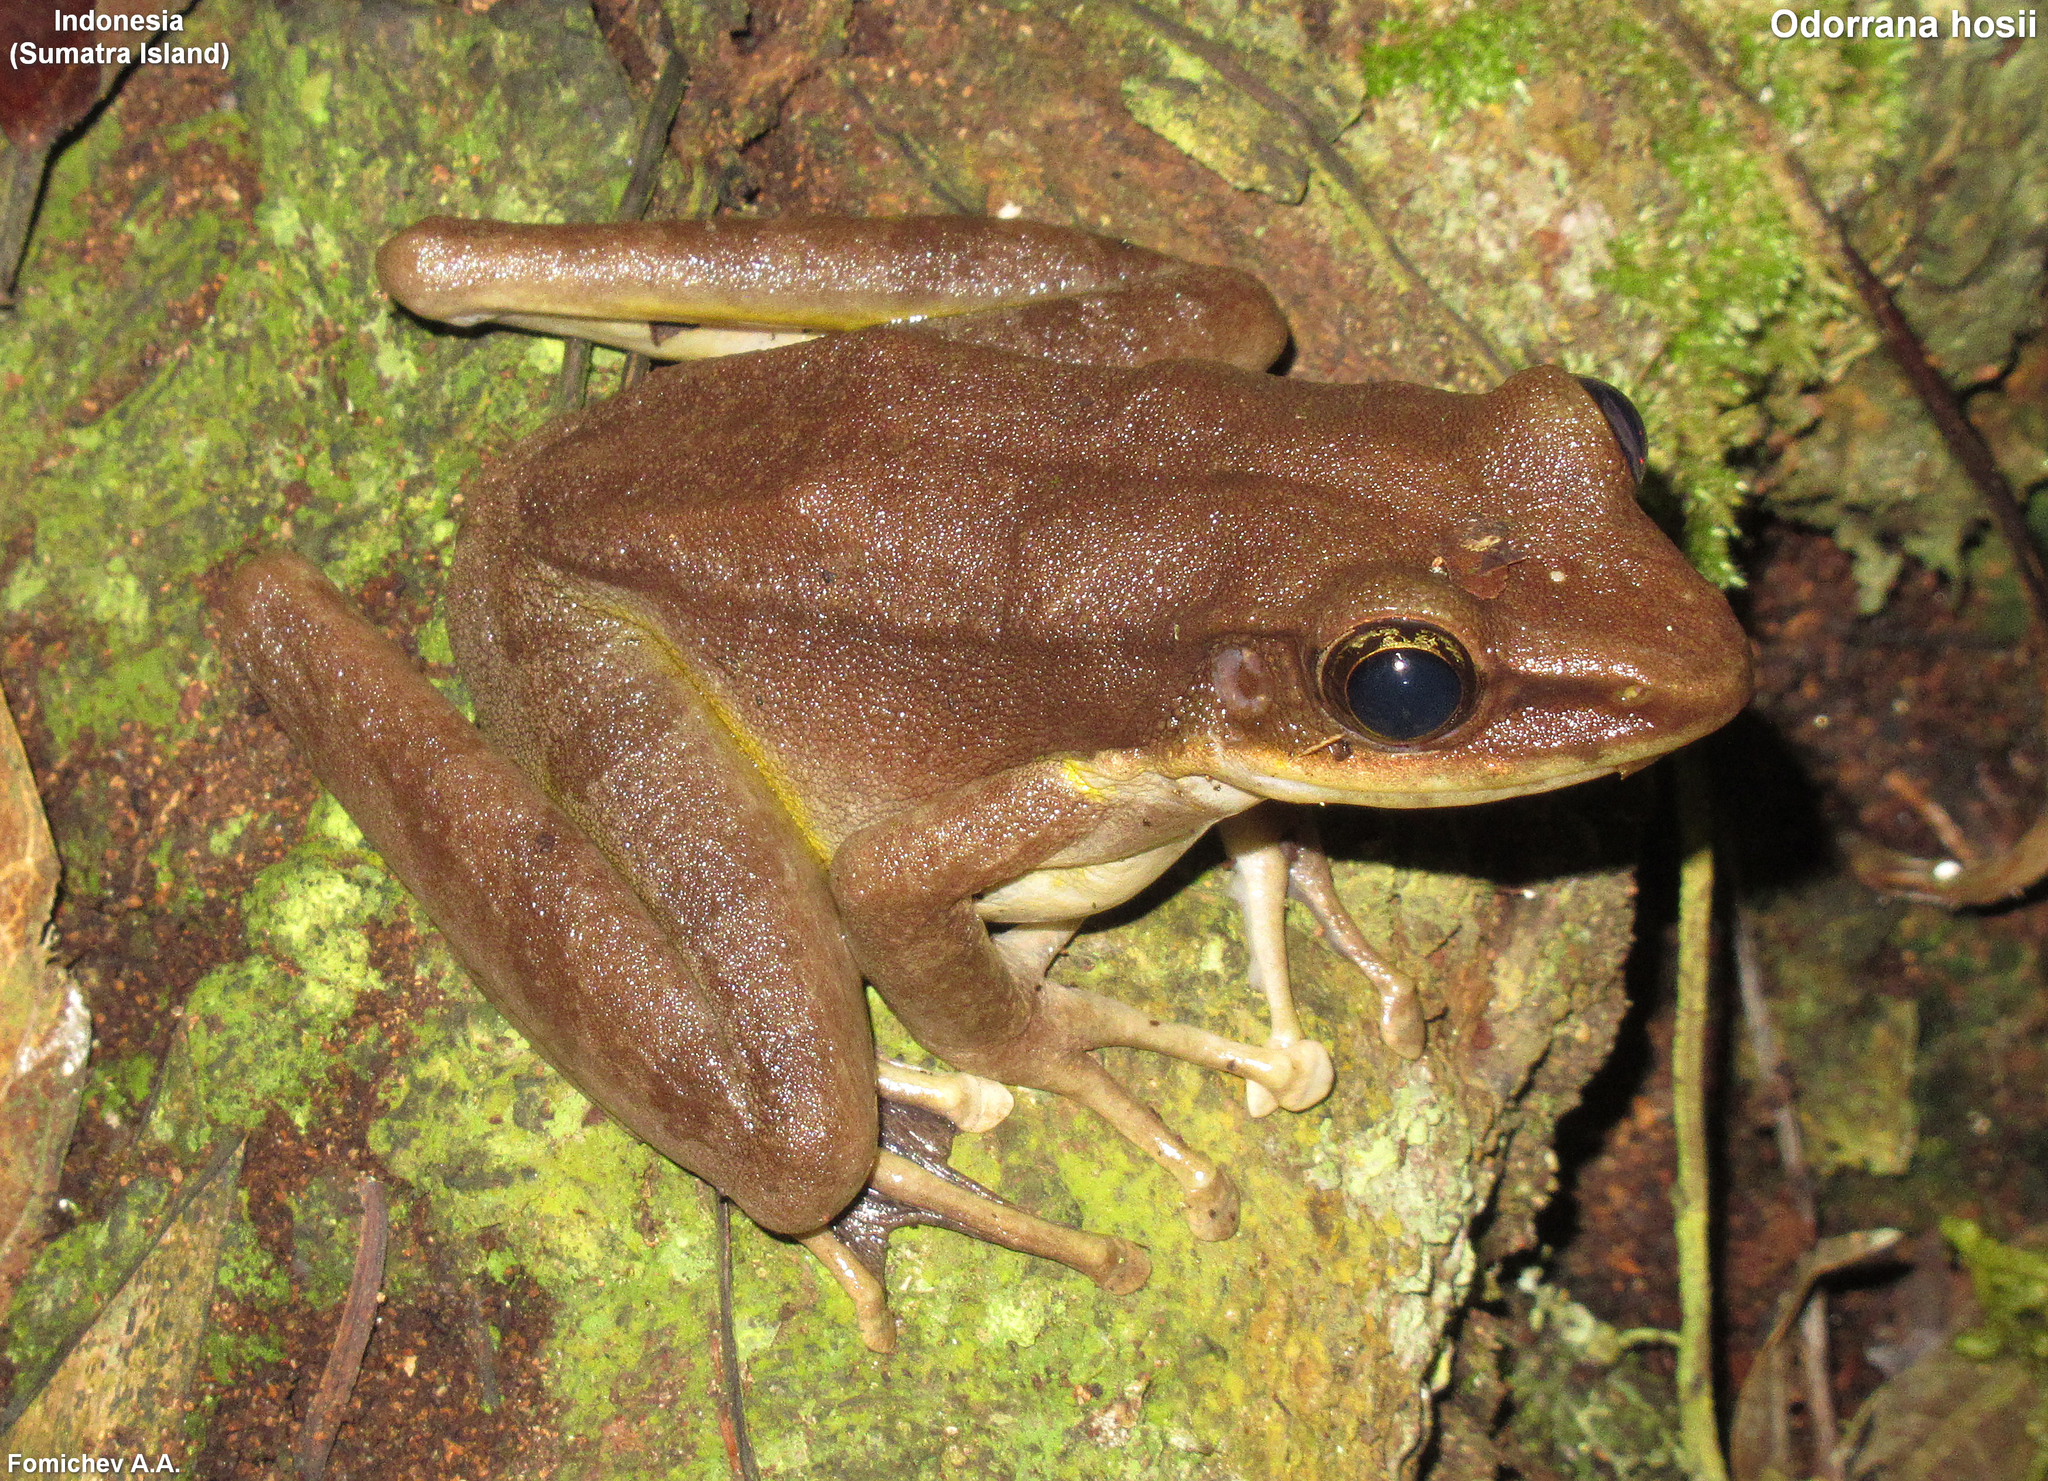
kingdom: Animalia
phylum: Chordata
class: Amphibia
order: Anura
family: Ranidae
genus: Odorrana
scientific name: Odorrana hosii
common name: Green tree frog
